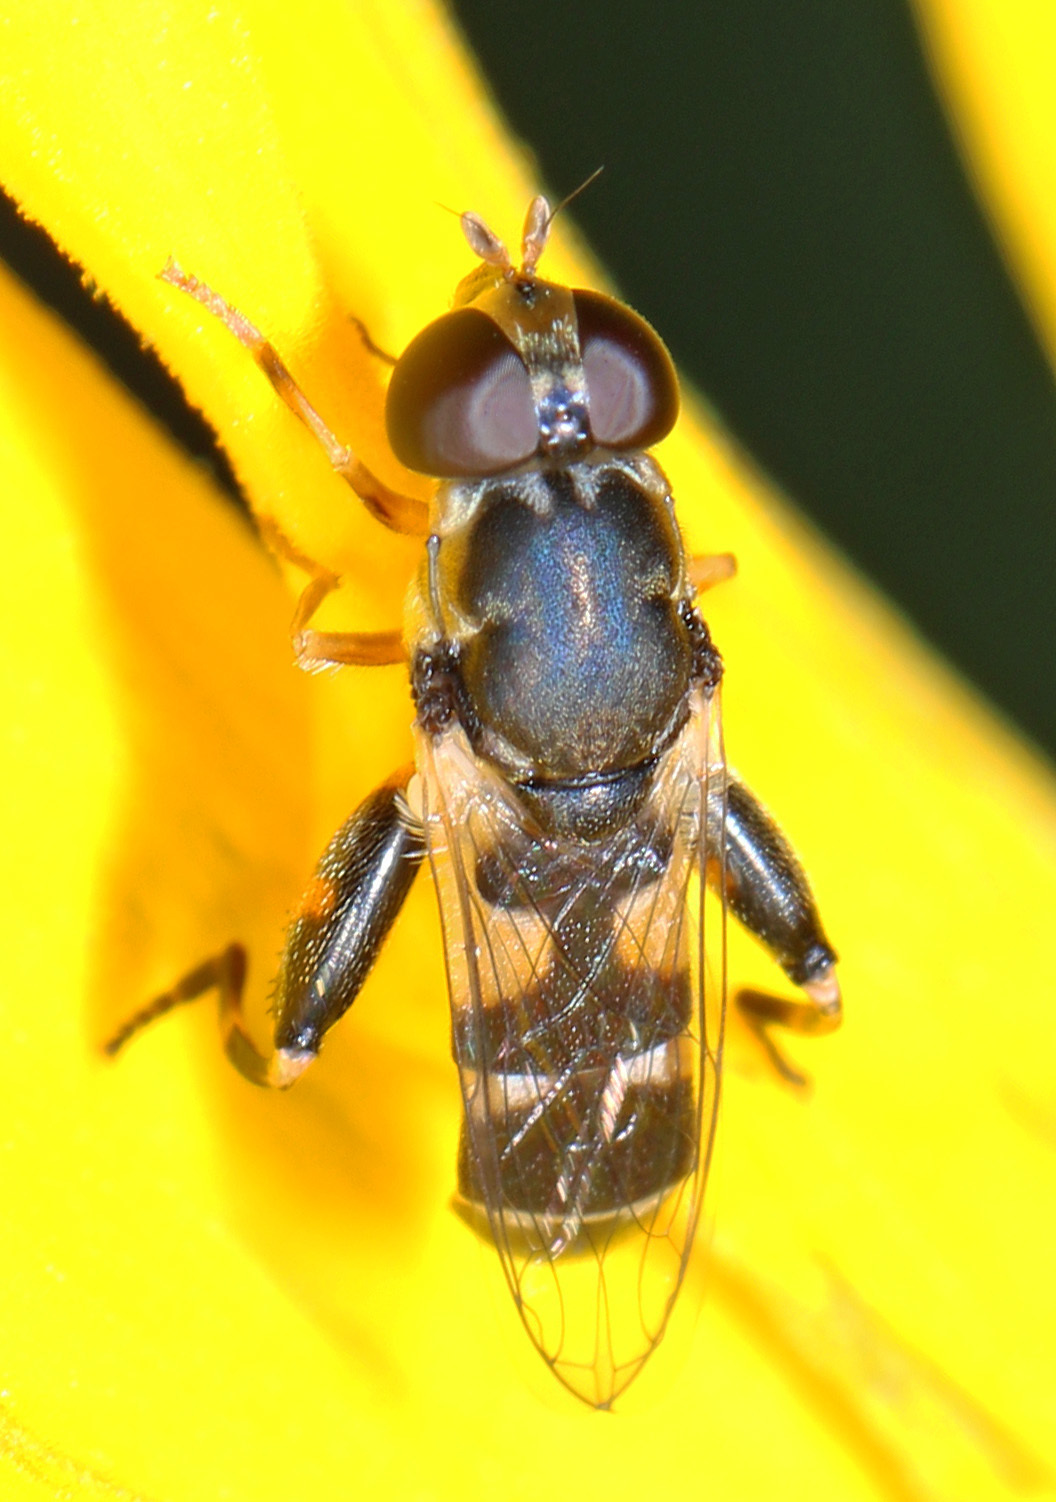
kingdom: Animalia
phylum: Arthropoda
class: Insecta
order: Diptera
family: Syrphidae
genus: Syritta
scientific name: Syritta pipiens
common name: Hover fly
